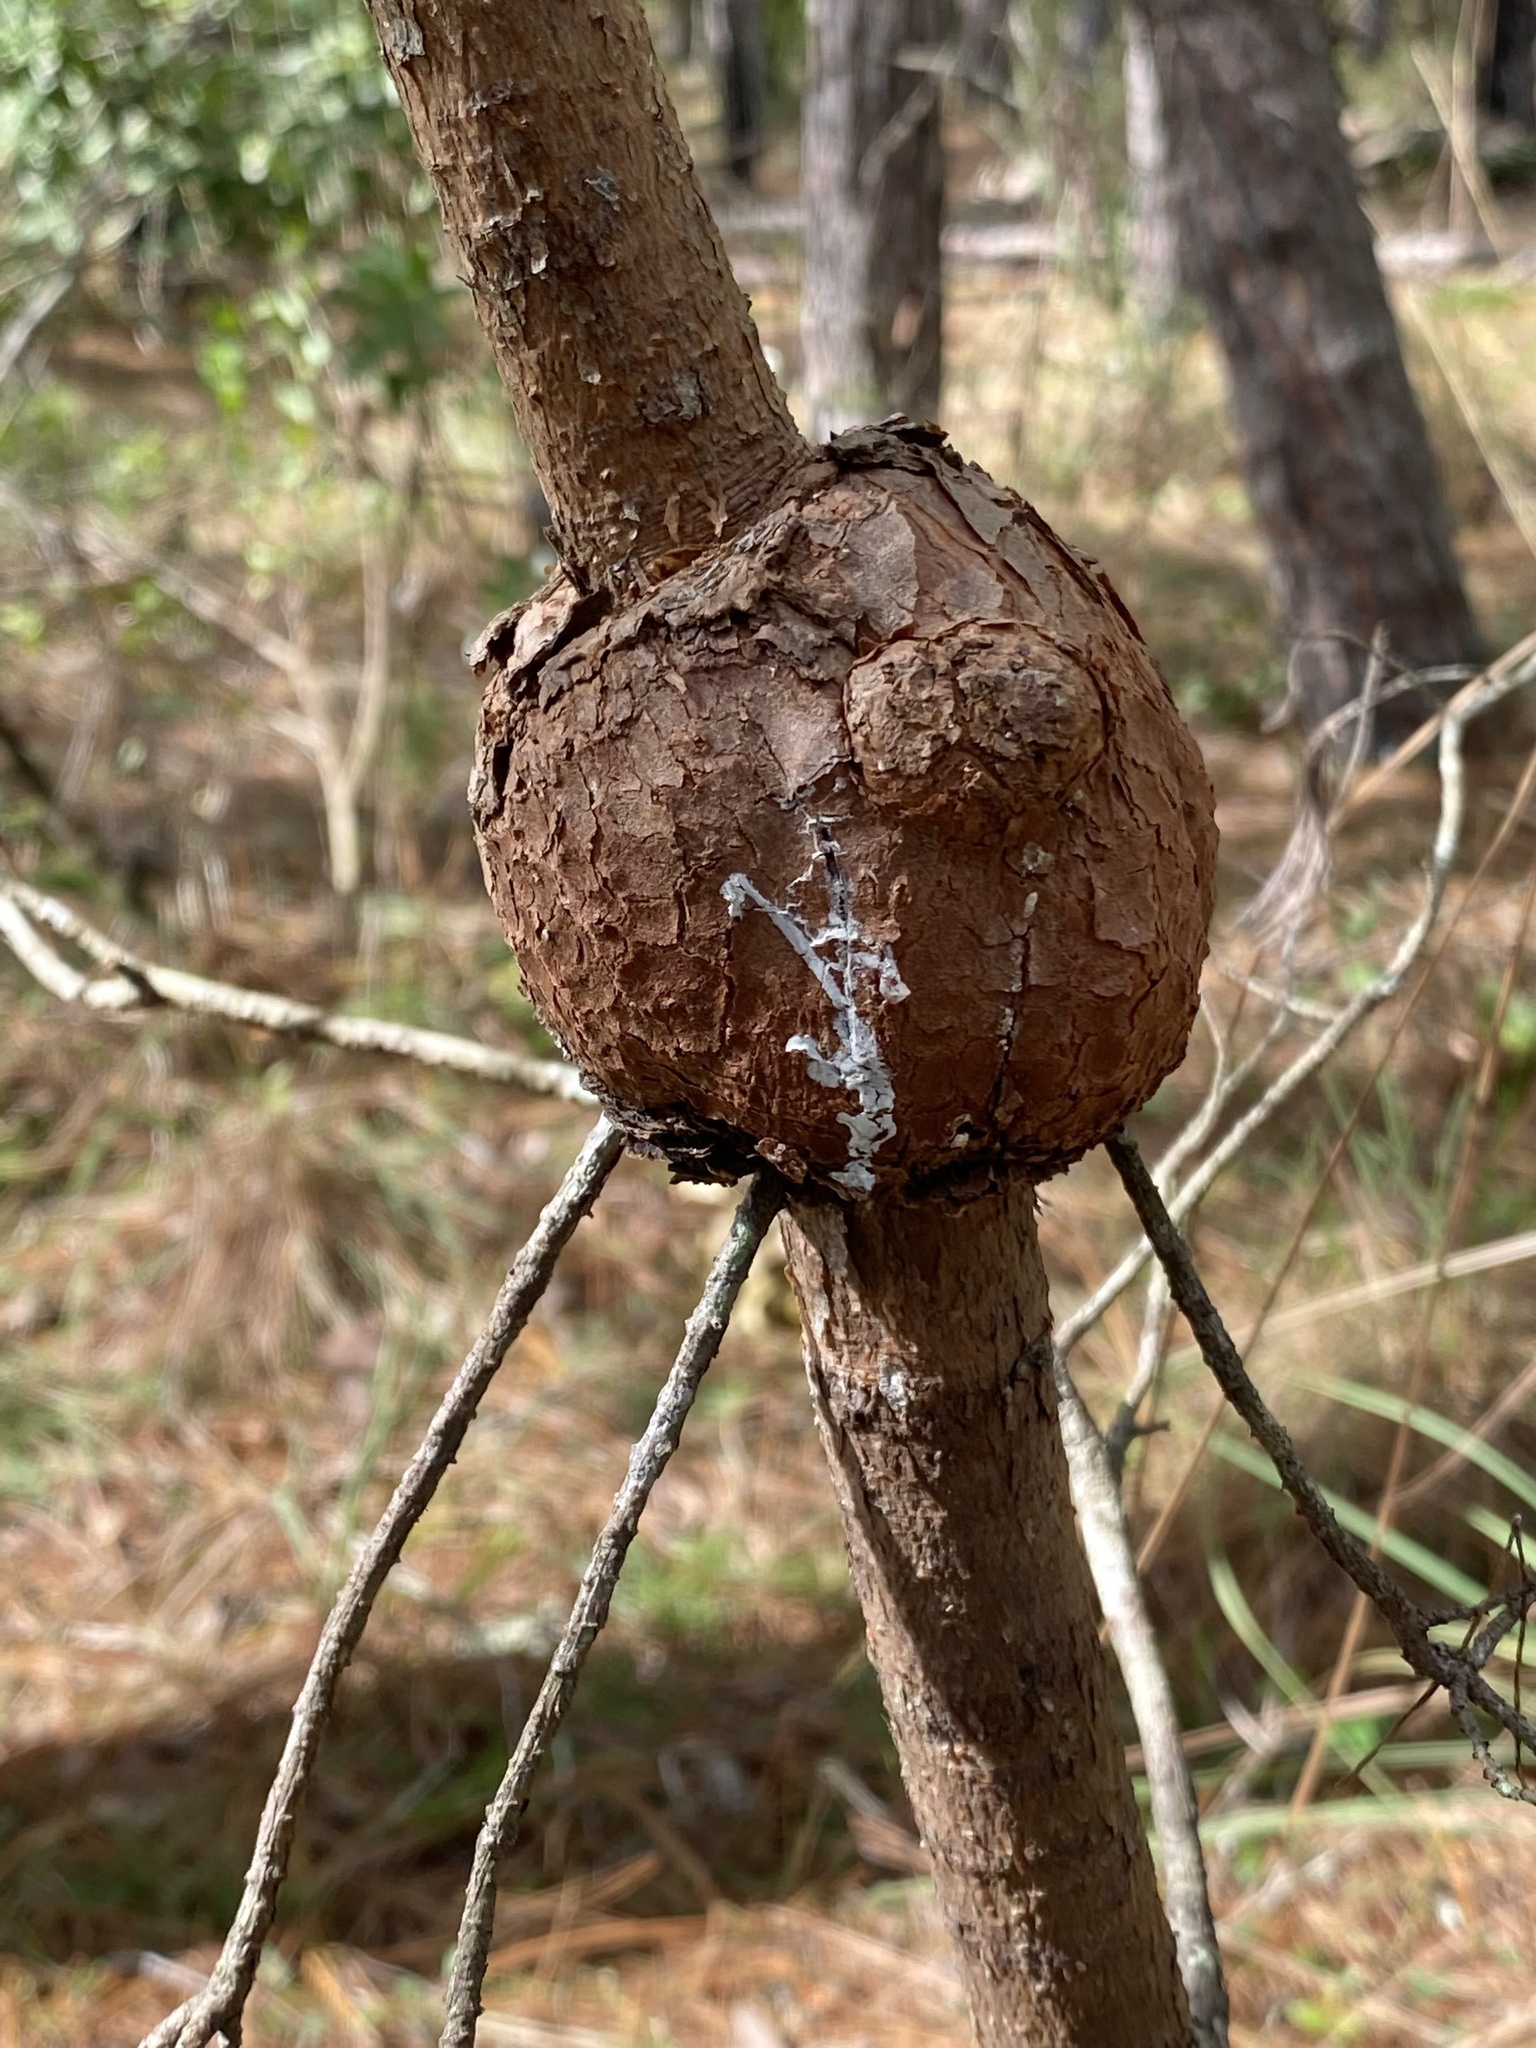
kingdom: Fungi
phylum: Basidiomycota
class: Pucciniomycetes
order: Pucciniales
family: Cronartiaceae
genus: Cronartium
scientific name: Cronartium quercuum
